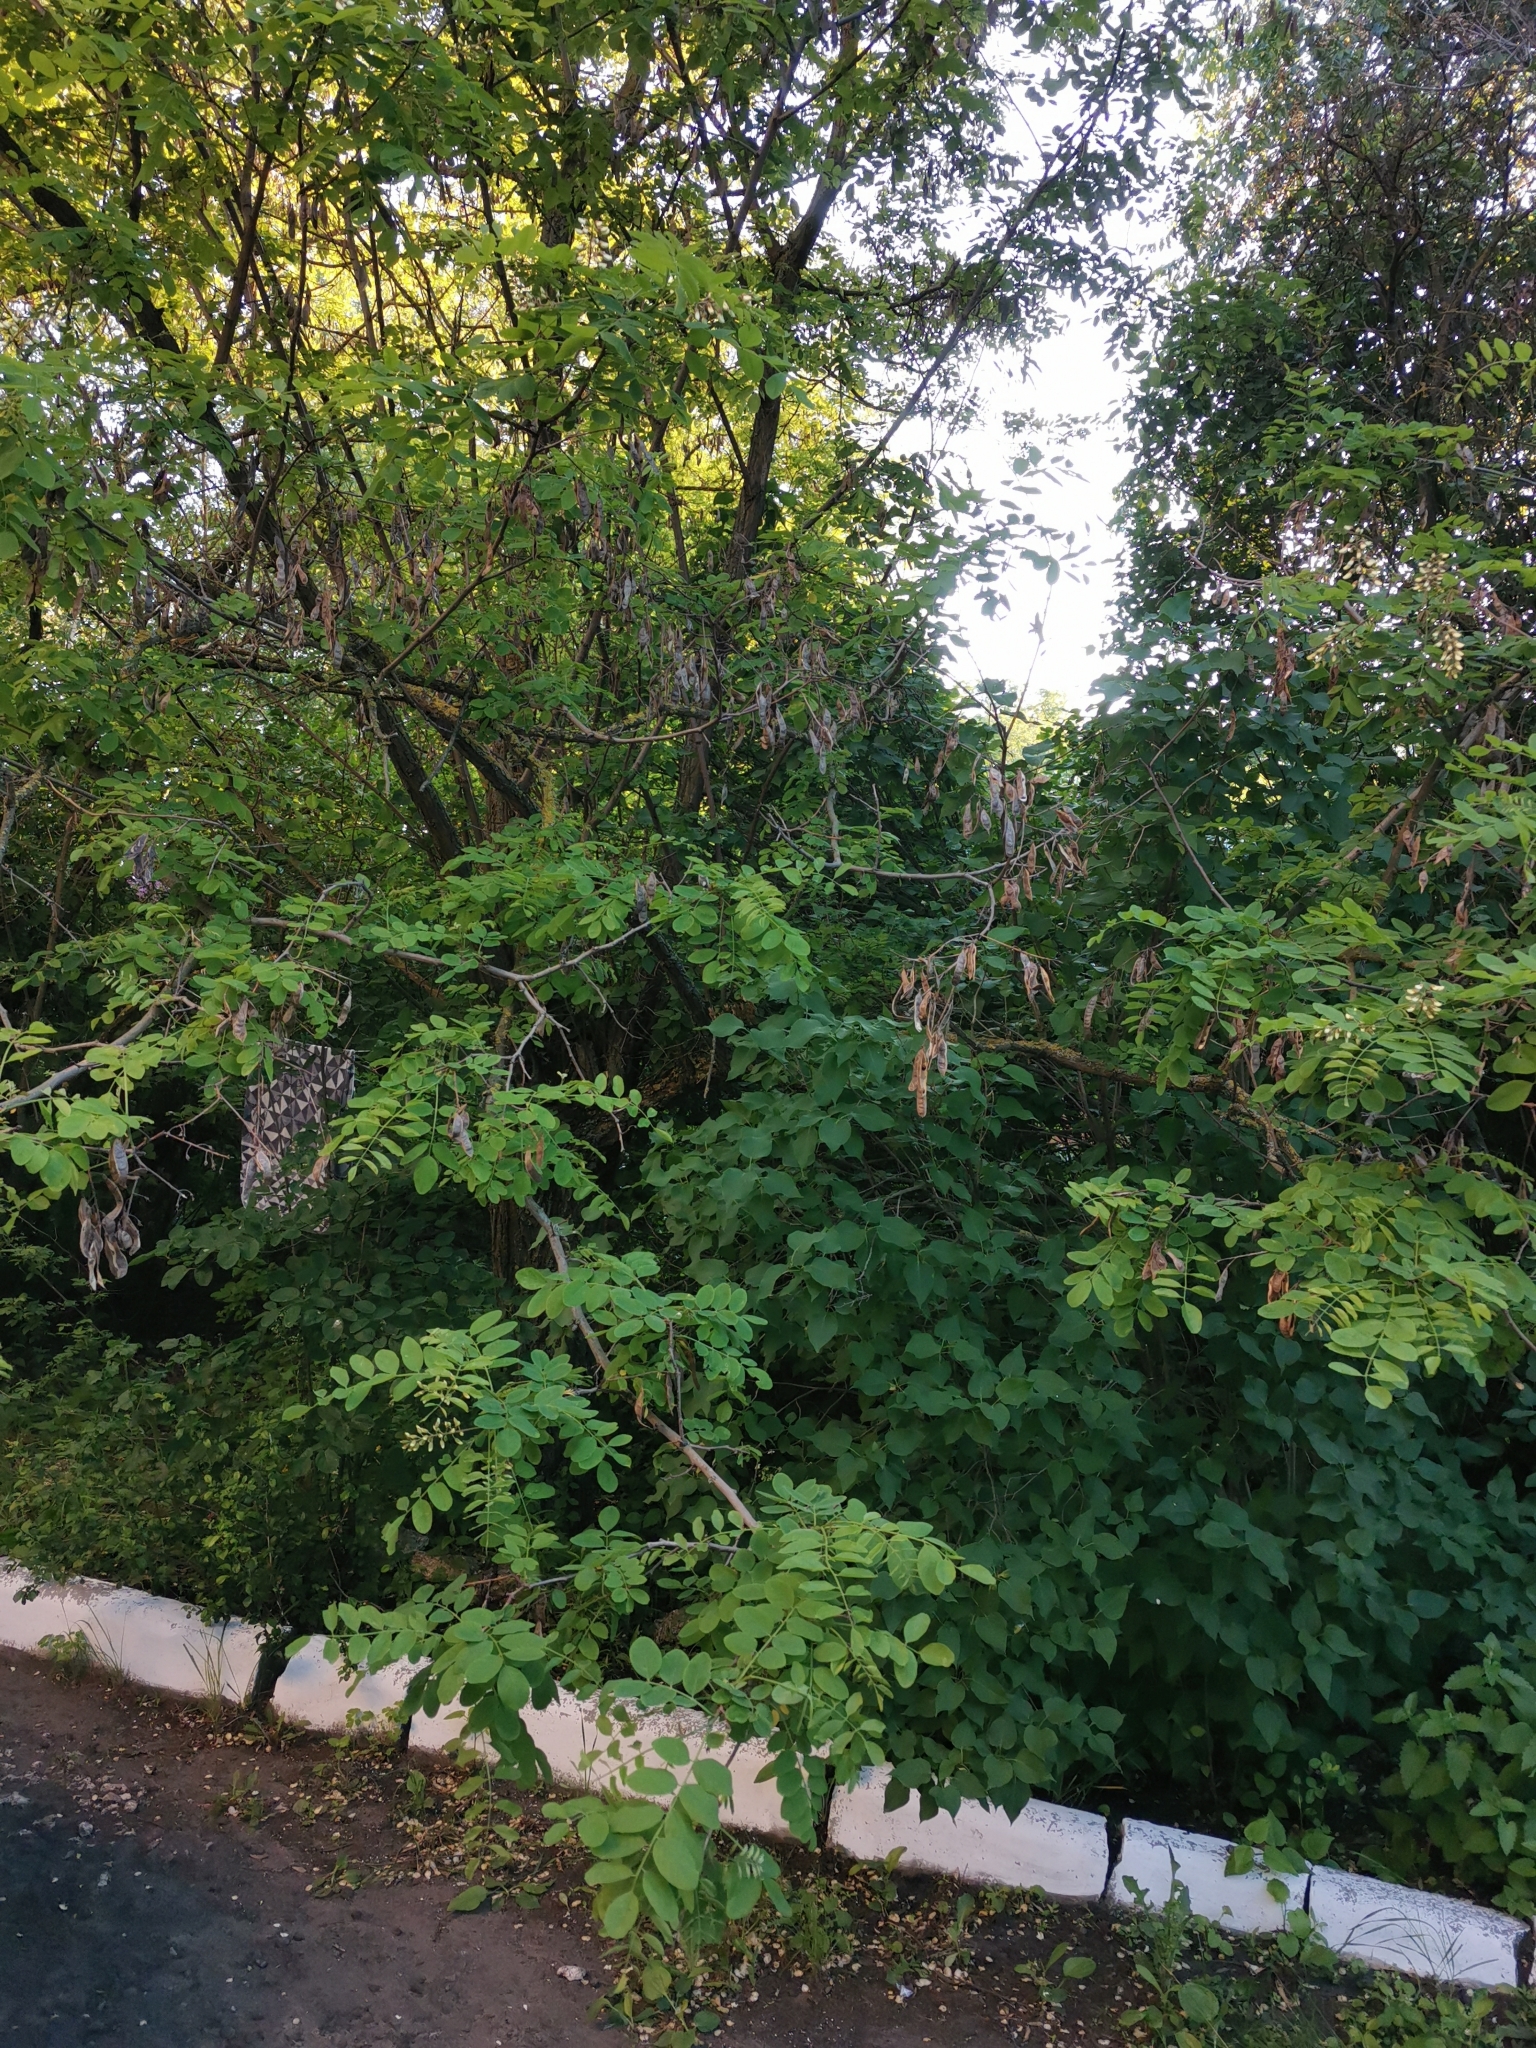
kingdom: Plantae
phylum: Tracheophyta
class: Magnoliopsida
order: Fabales
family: Fabaceae
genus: Robinia
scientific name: Robinia pseudoacacia
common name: Black locust
